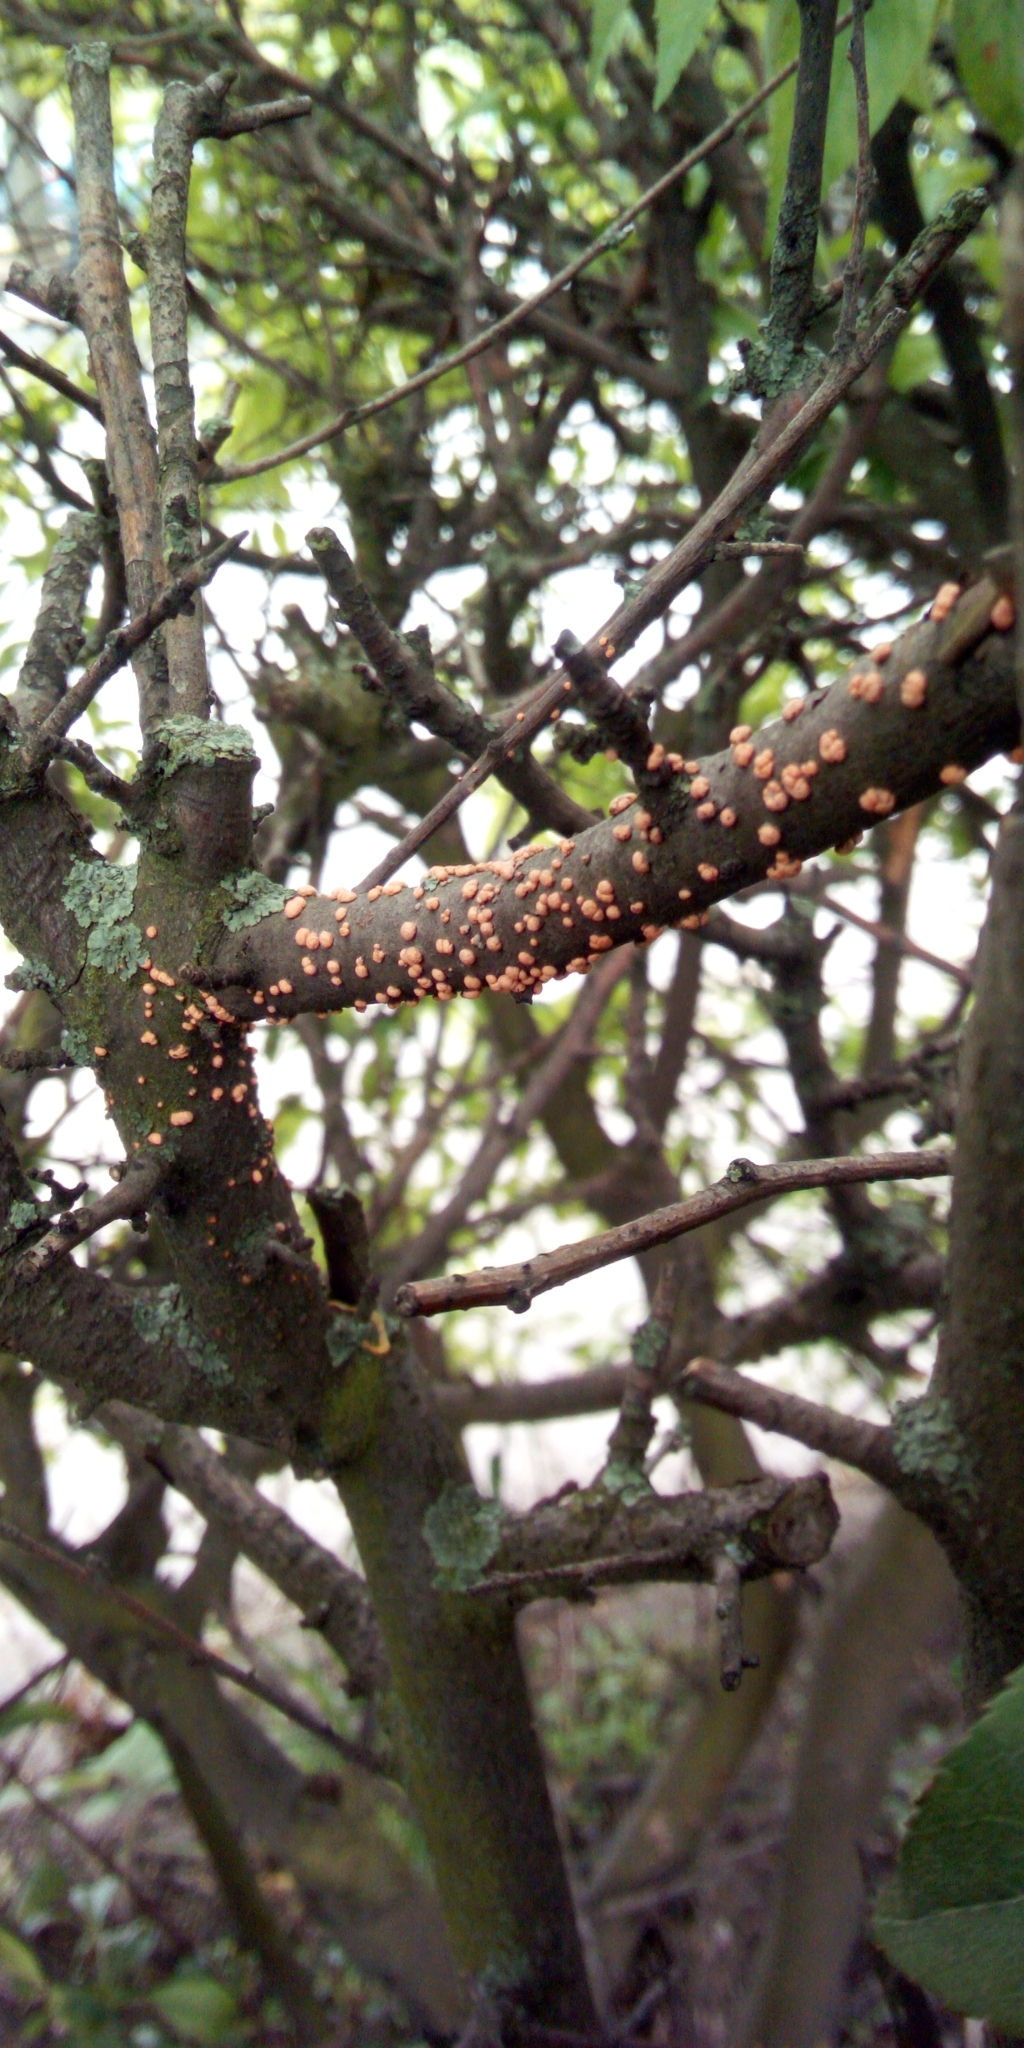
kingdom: Fungi
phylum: Ascomycota
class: Sordariomycetes
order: Hypocreales
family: Nectriaceae
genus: Nectria
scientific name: Nectria cinnabarina
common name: Coral spot
